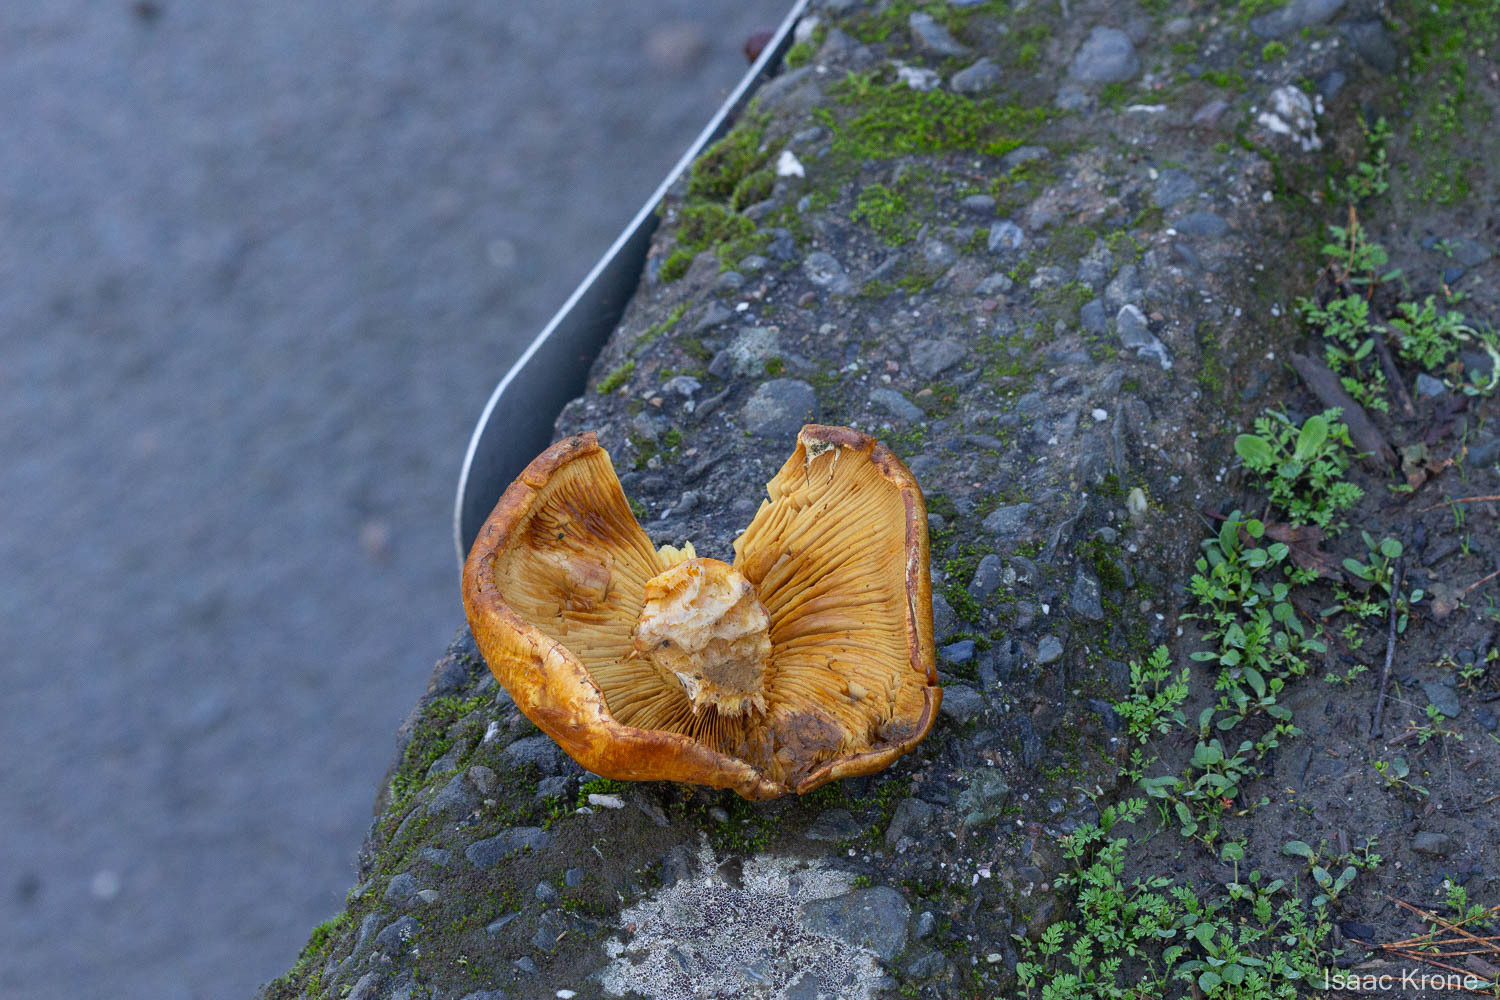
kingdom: Fungi
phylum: Basidiomycota
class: Agaricomycetes
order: Agaricales
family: Hymenogastraceae
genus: Gymnopilus
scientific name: Gymnopilus aurantiophyllus
